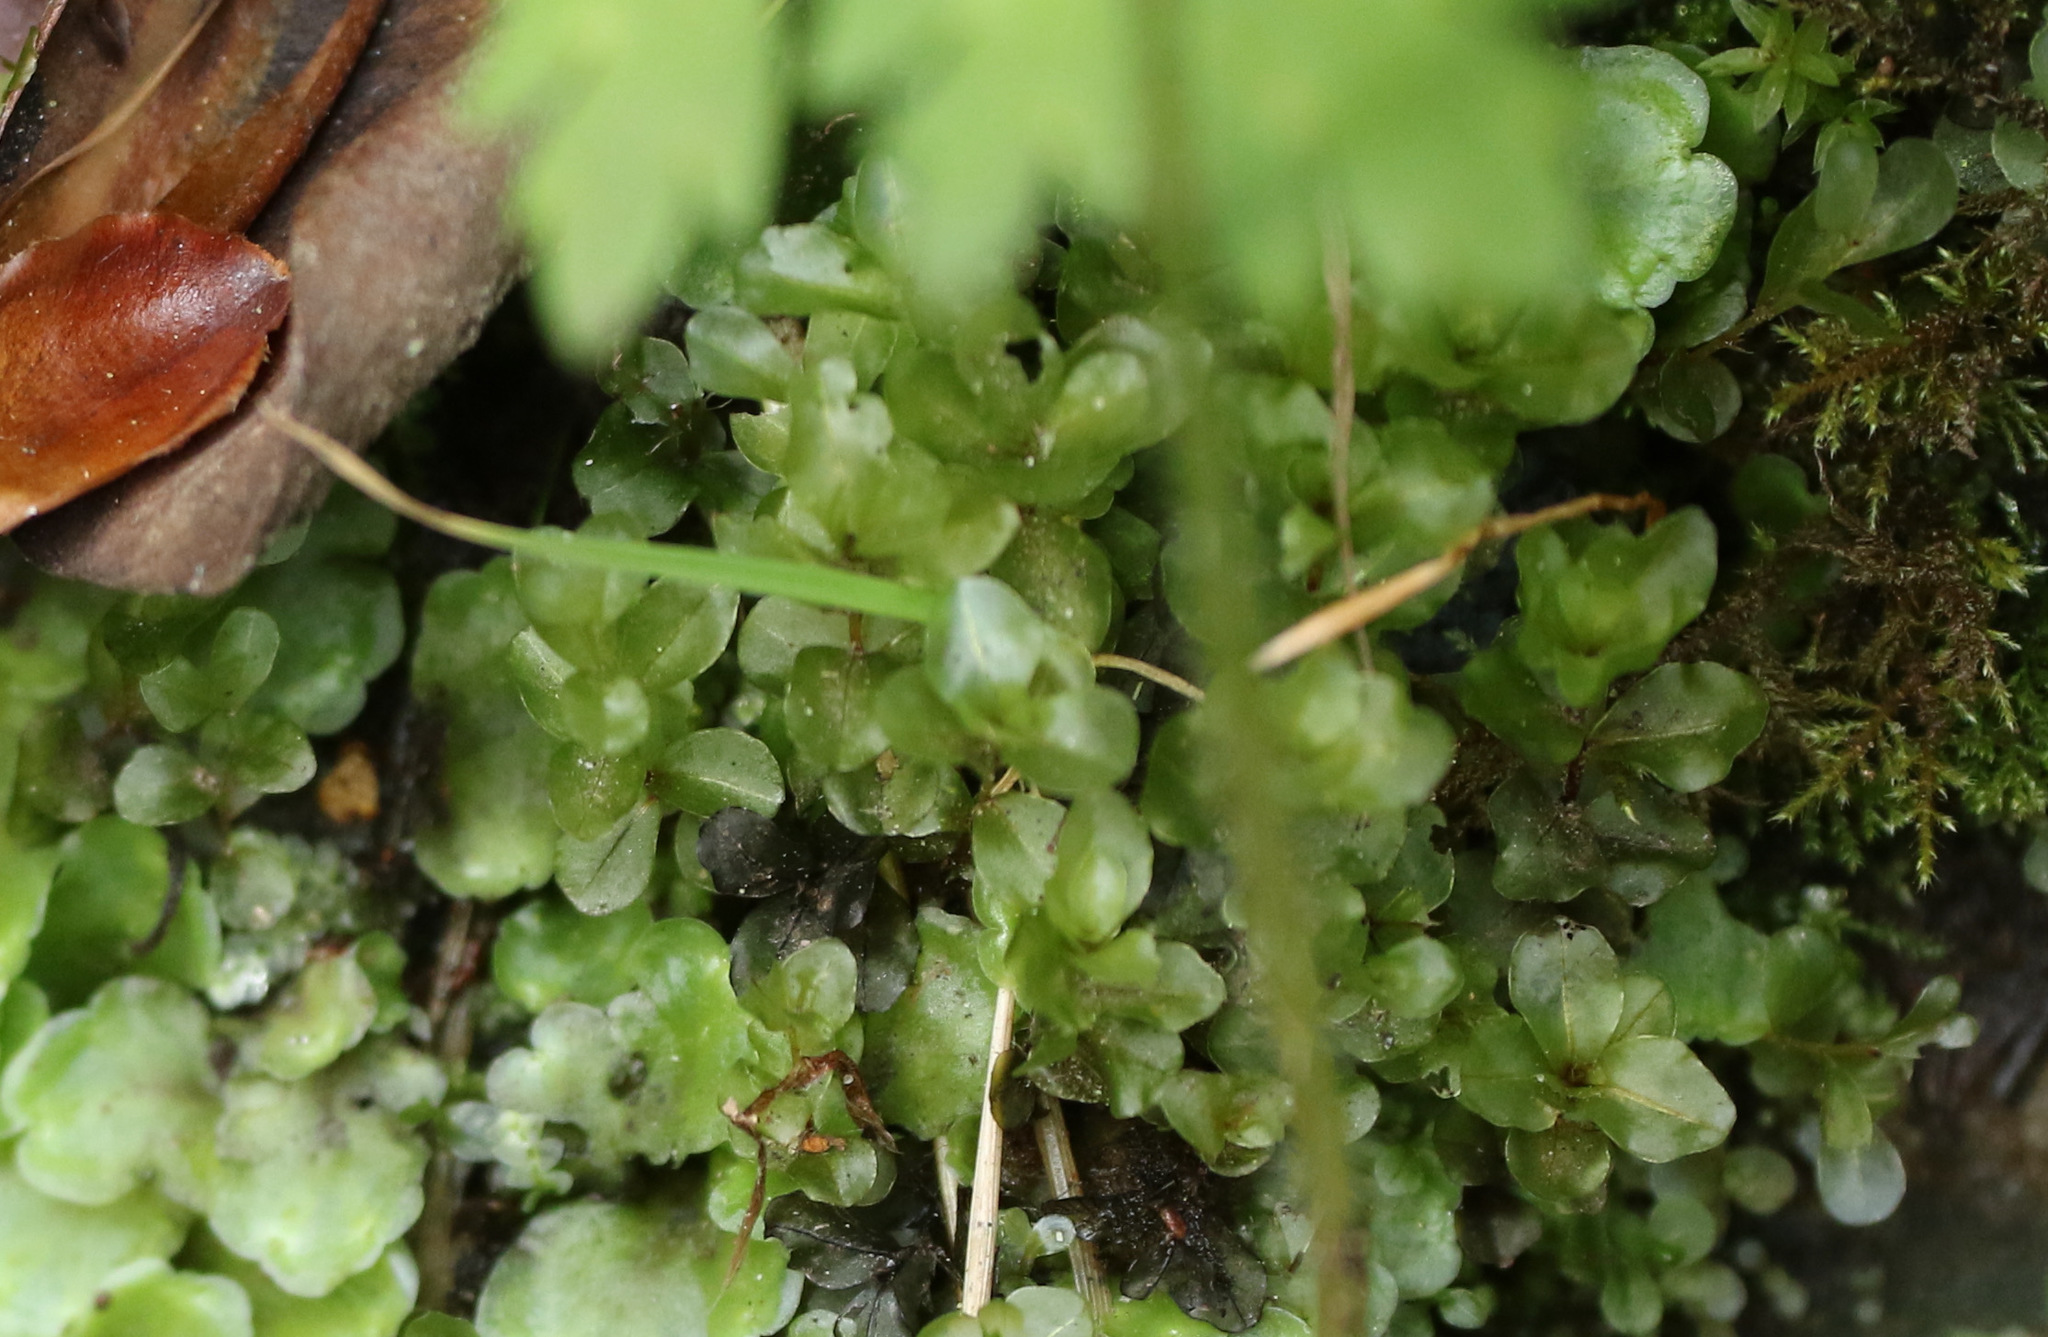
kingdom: Plantae
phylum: Bryophyta
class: Bryopsida
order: Bryales
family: Mniaceae
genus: Rhizomnium
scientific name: Rhizomnium punctatum
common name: Dotted leafy moss
